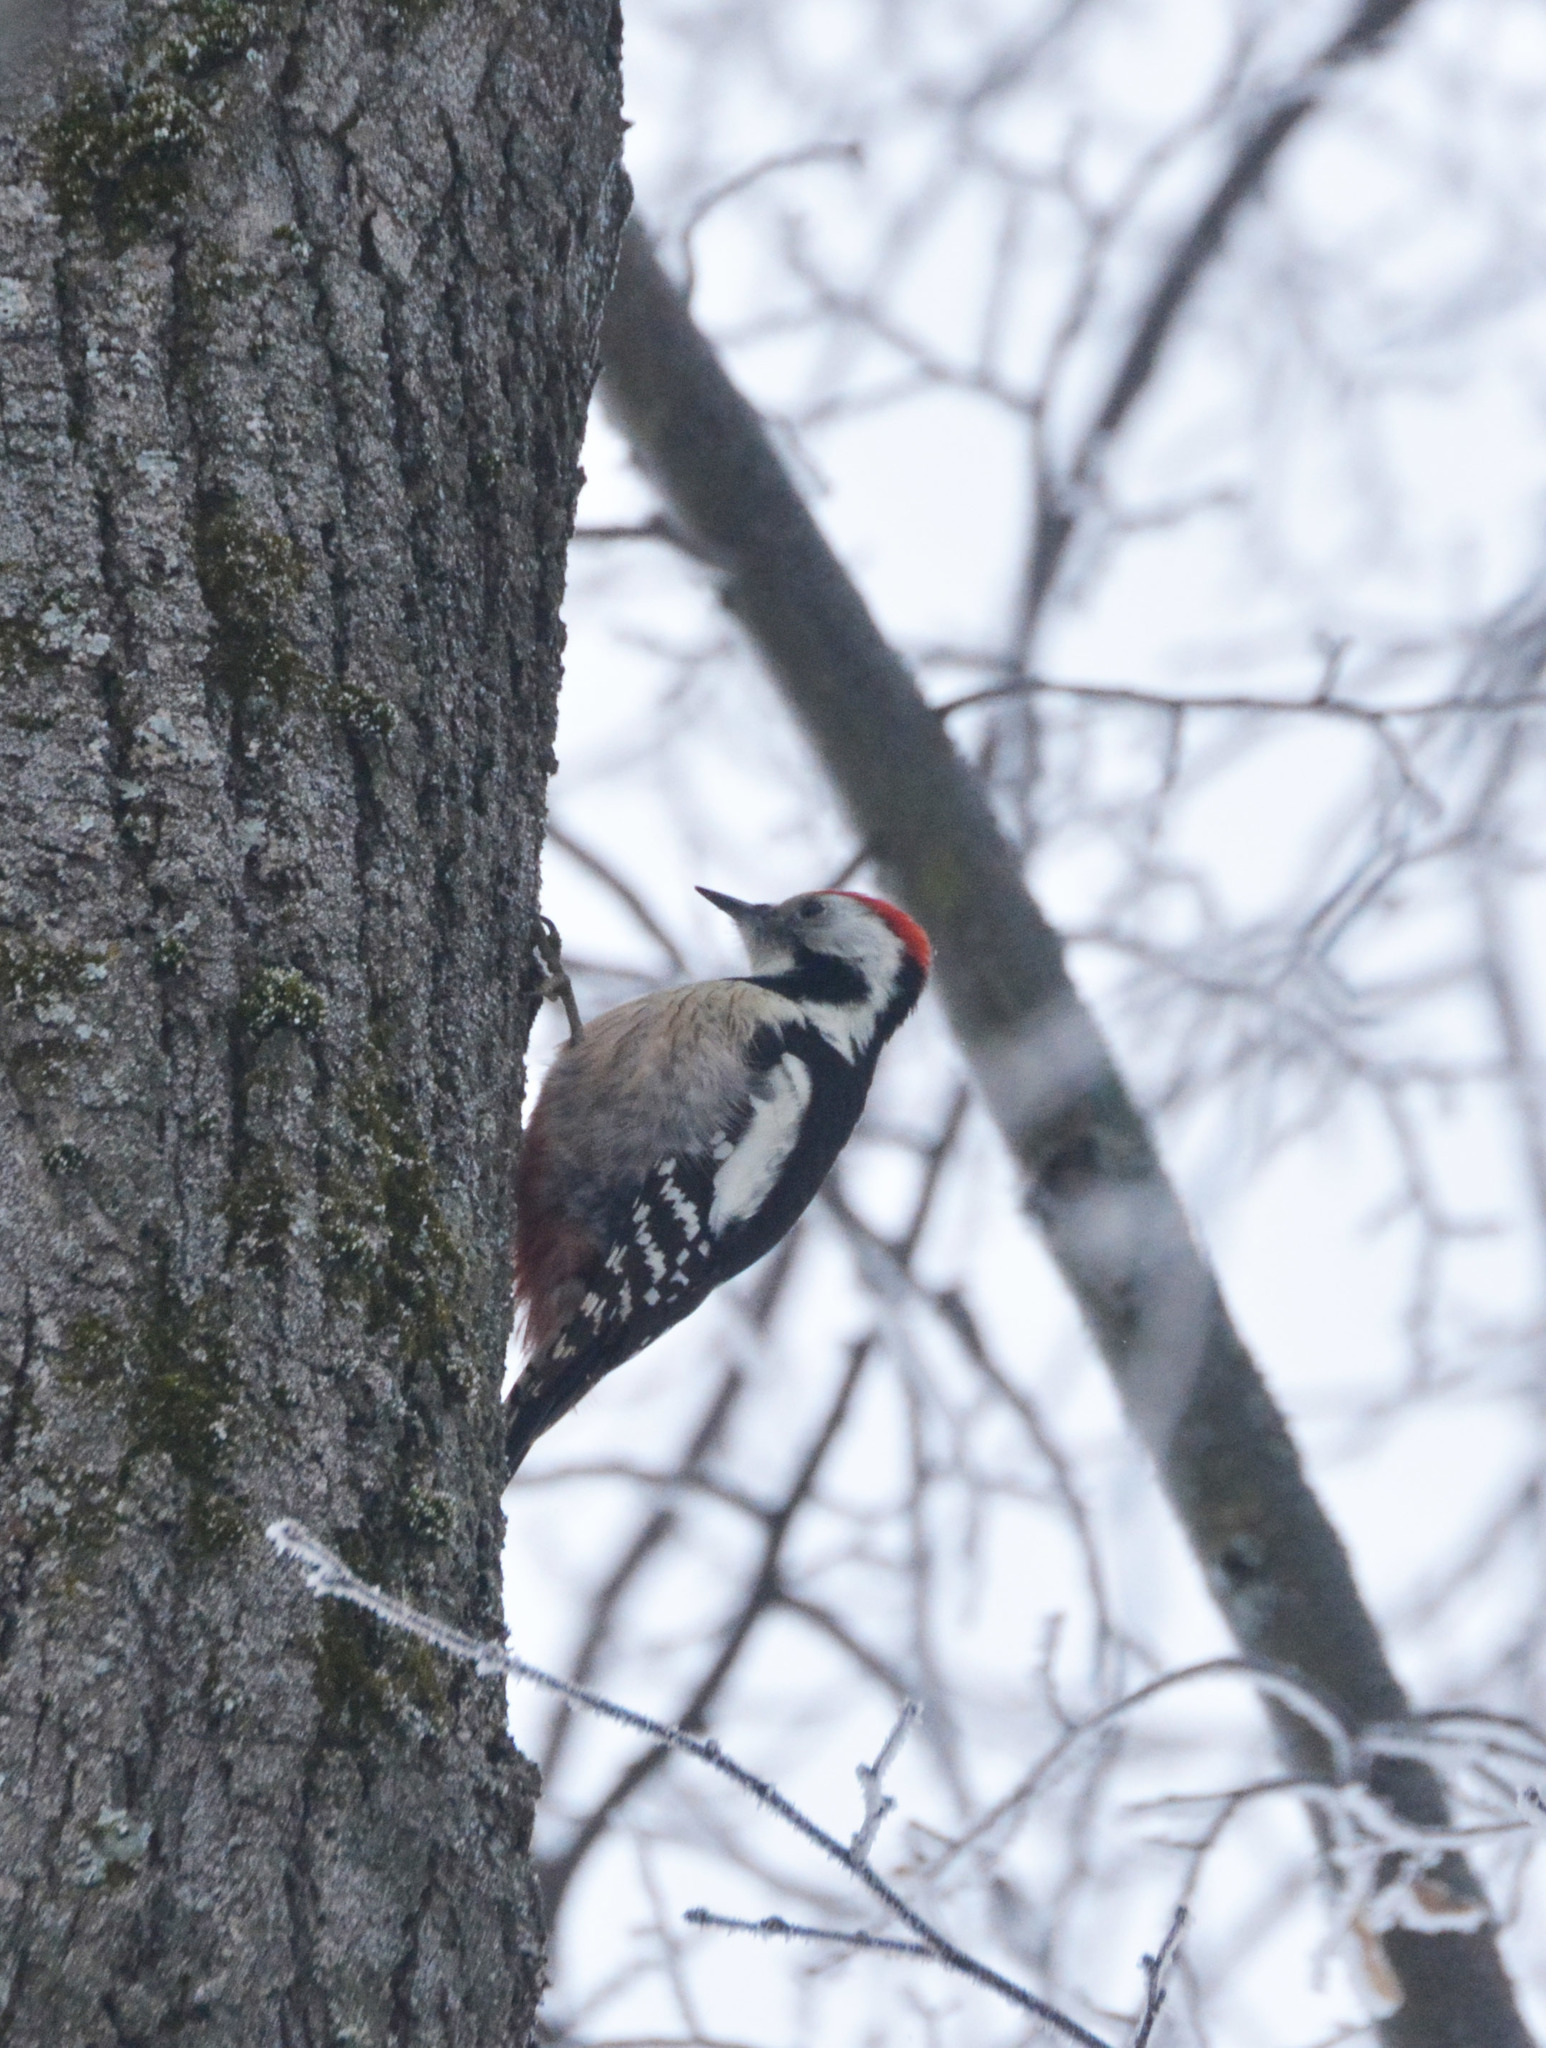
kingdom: Animalia
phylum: Chordata
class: Aves
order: Piciformes
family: Picidae
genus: Dendrocoptes
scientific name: Dendrocoptes medius
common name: Middle spotted woodpecker
